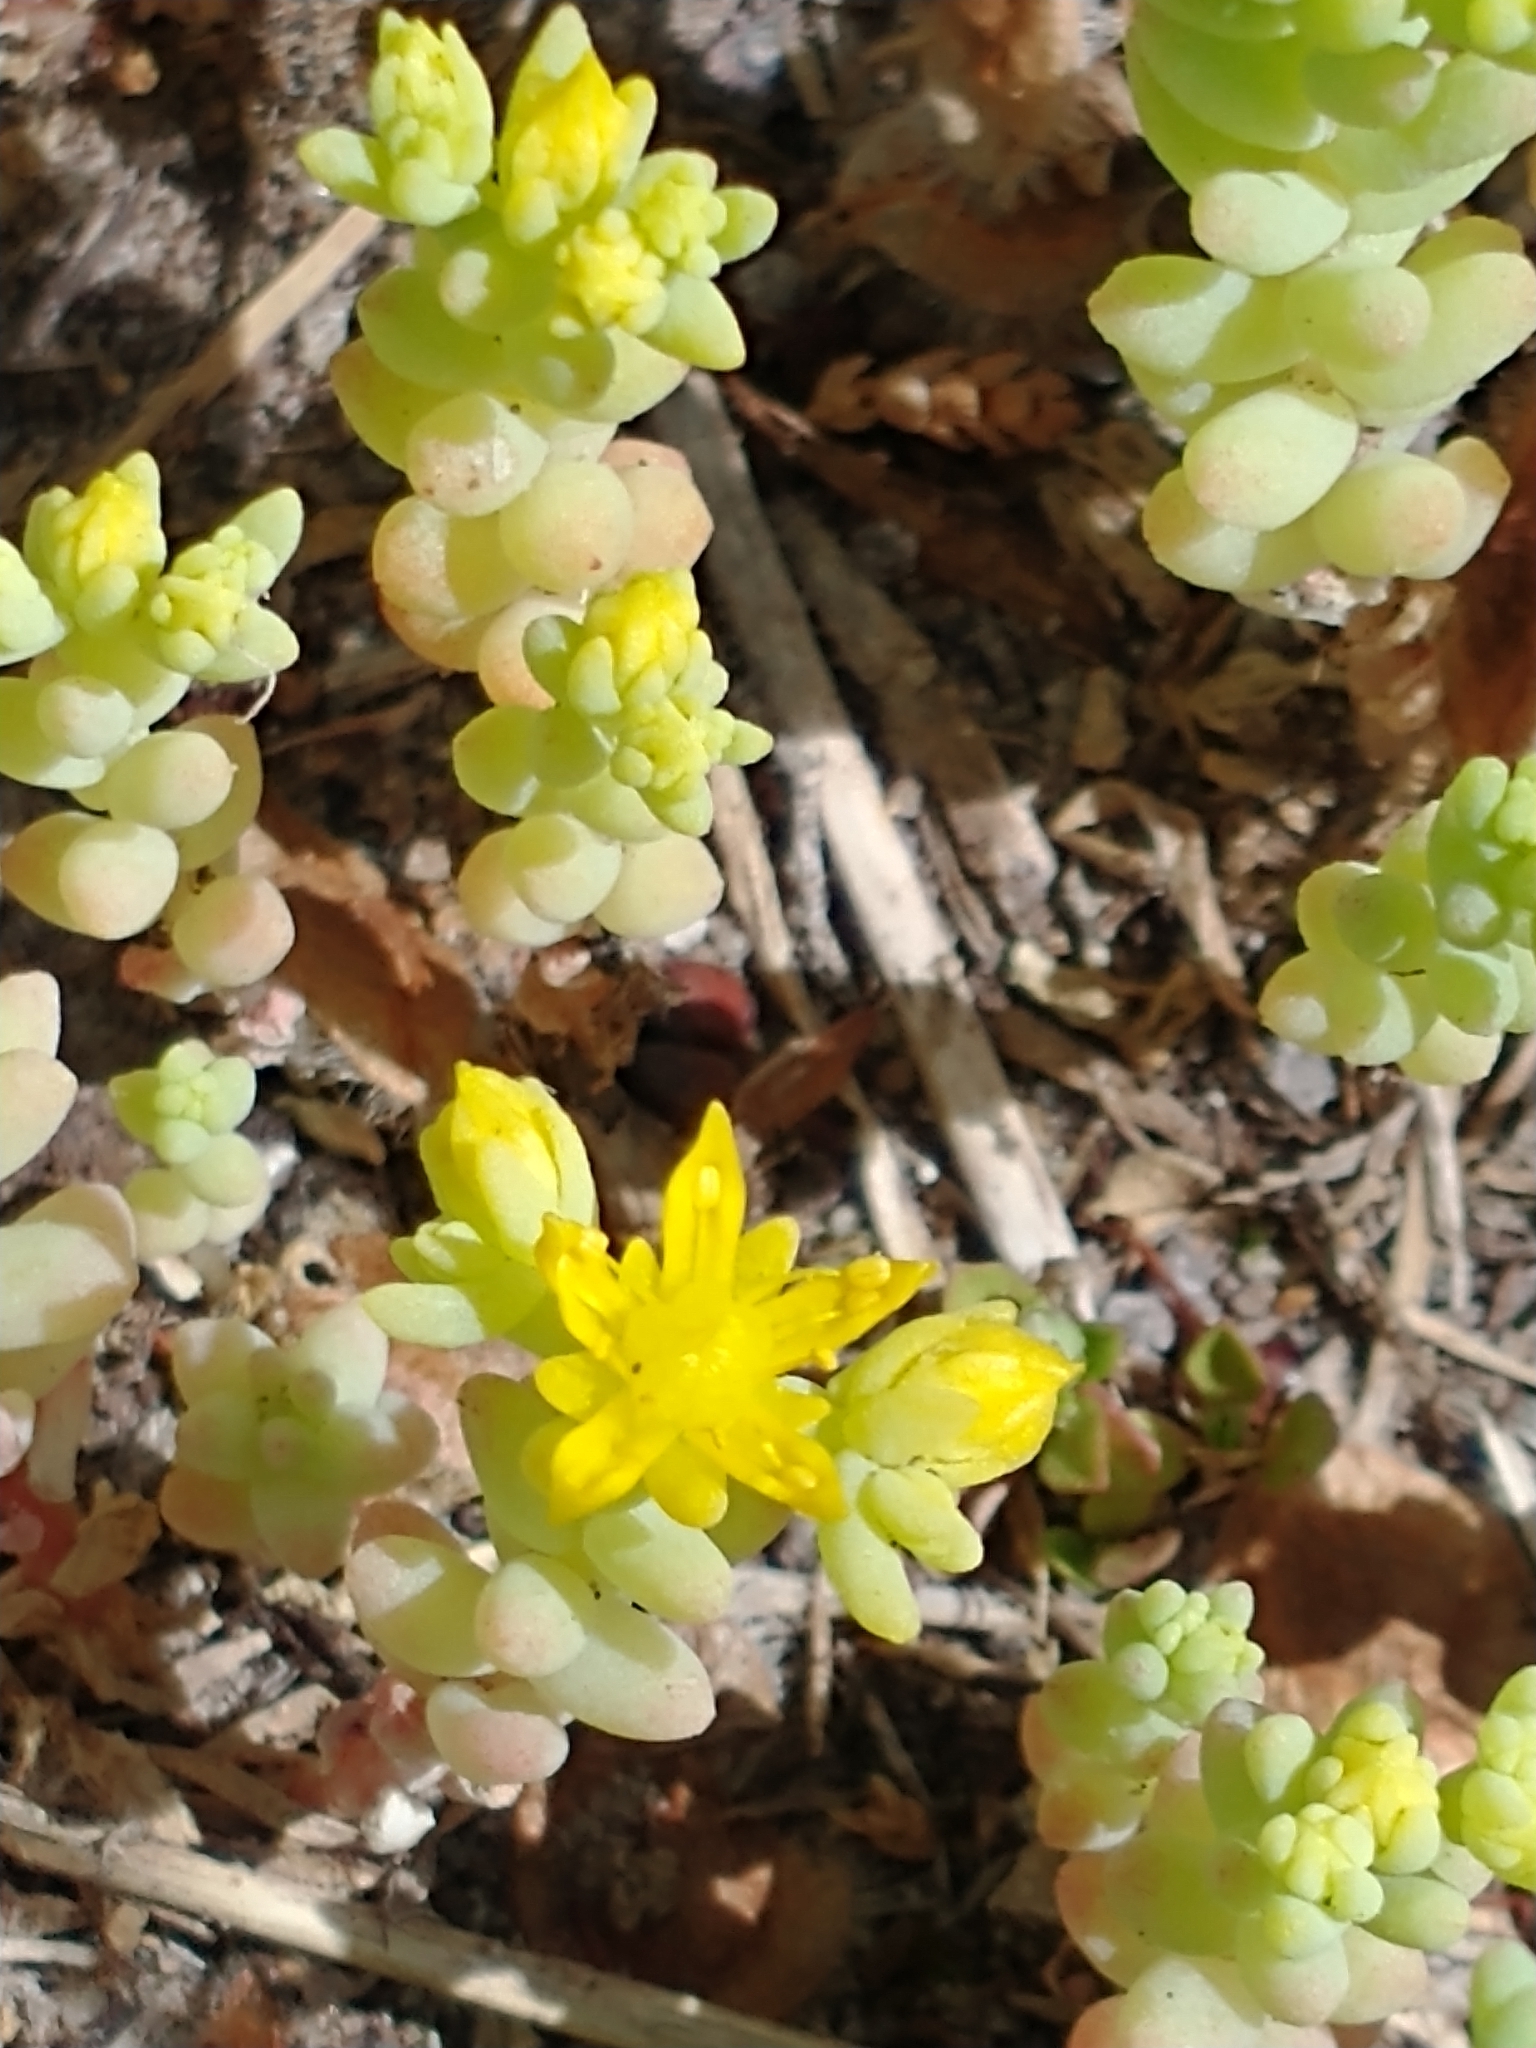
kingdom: Plantae
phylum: Tracheophyta
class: Magnoliopsida
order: Saxifragales
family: Crassulaceae
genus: Sedum
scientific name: Sedum nuttallii
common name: Yellow stonecrop
